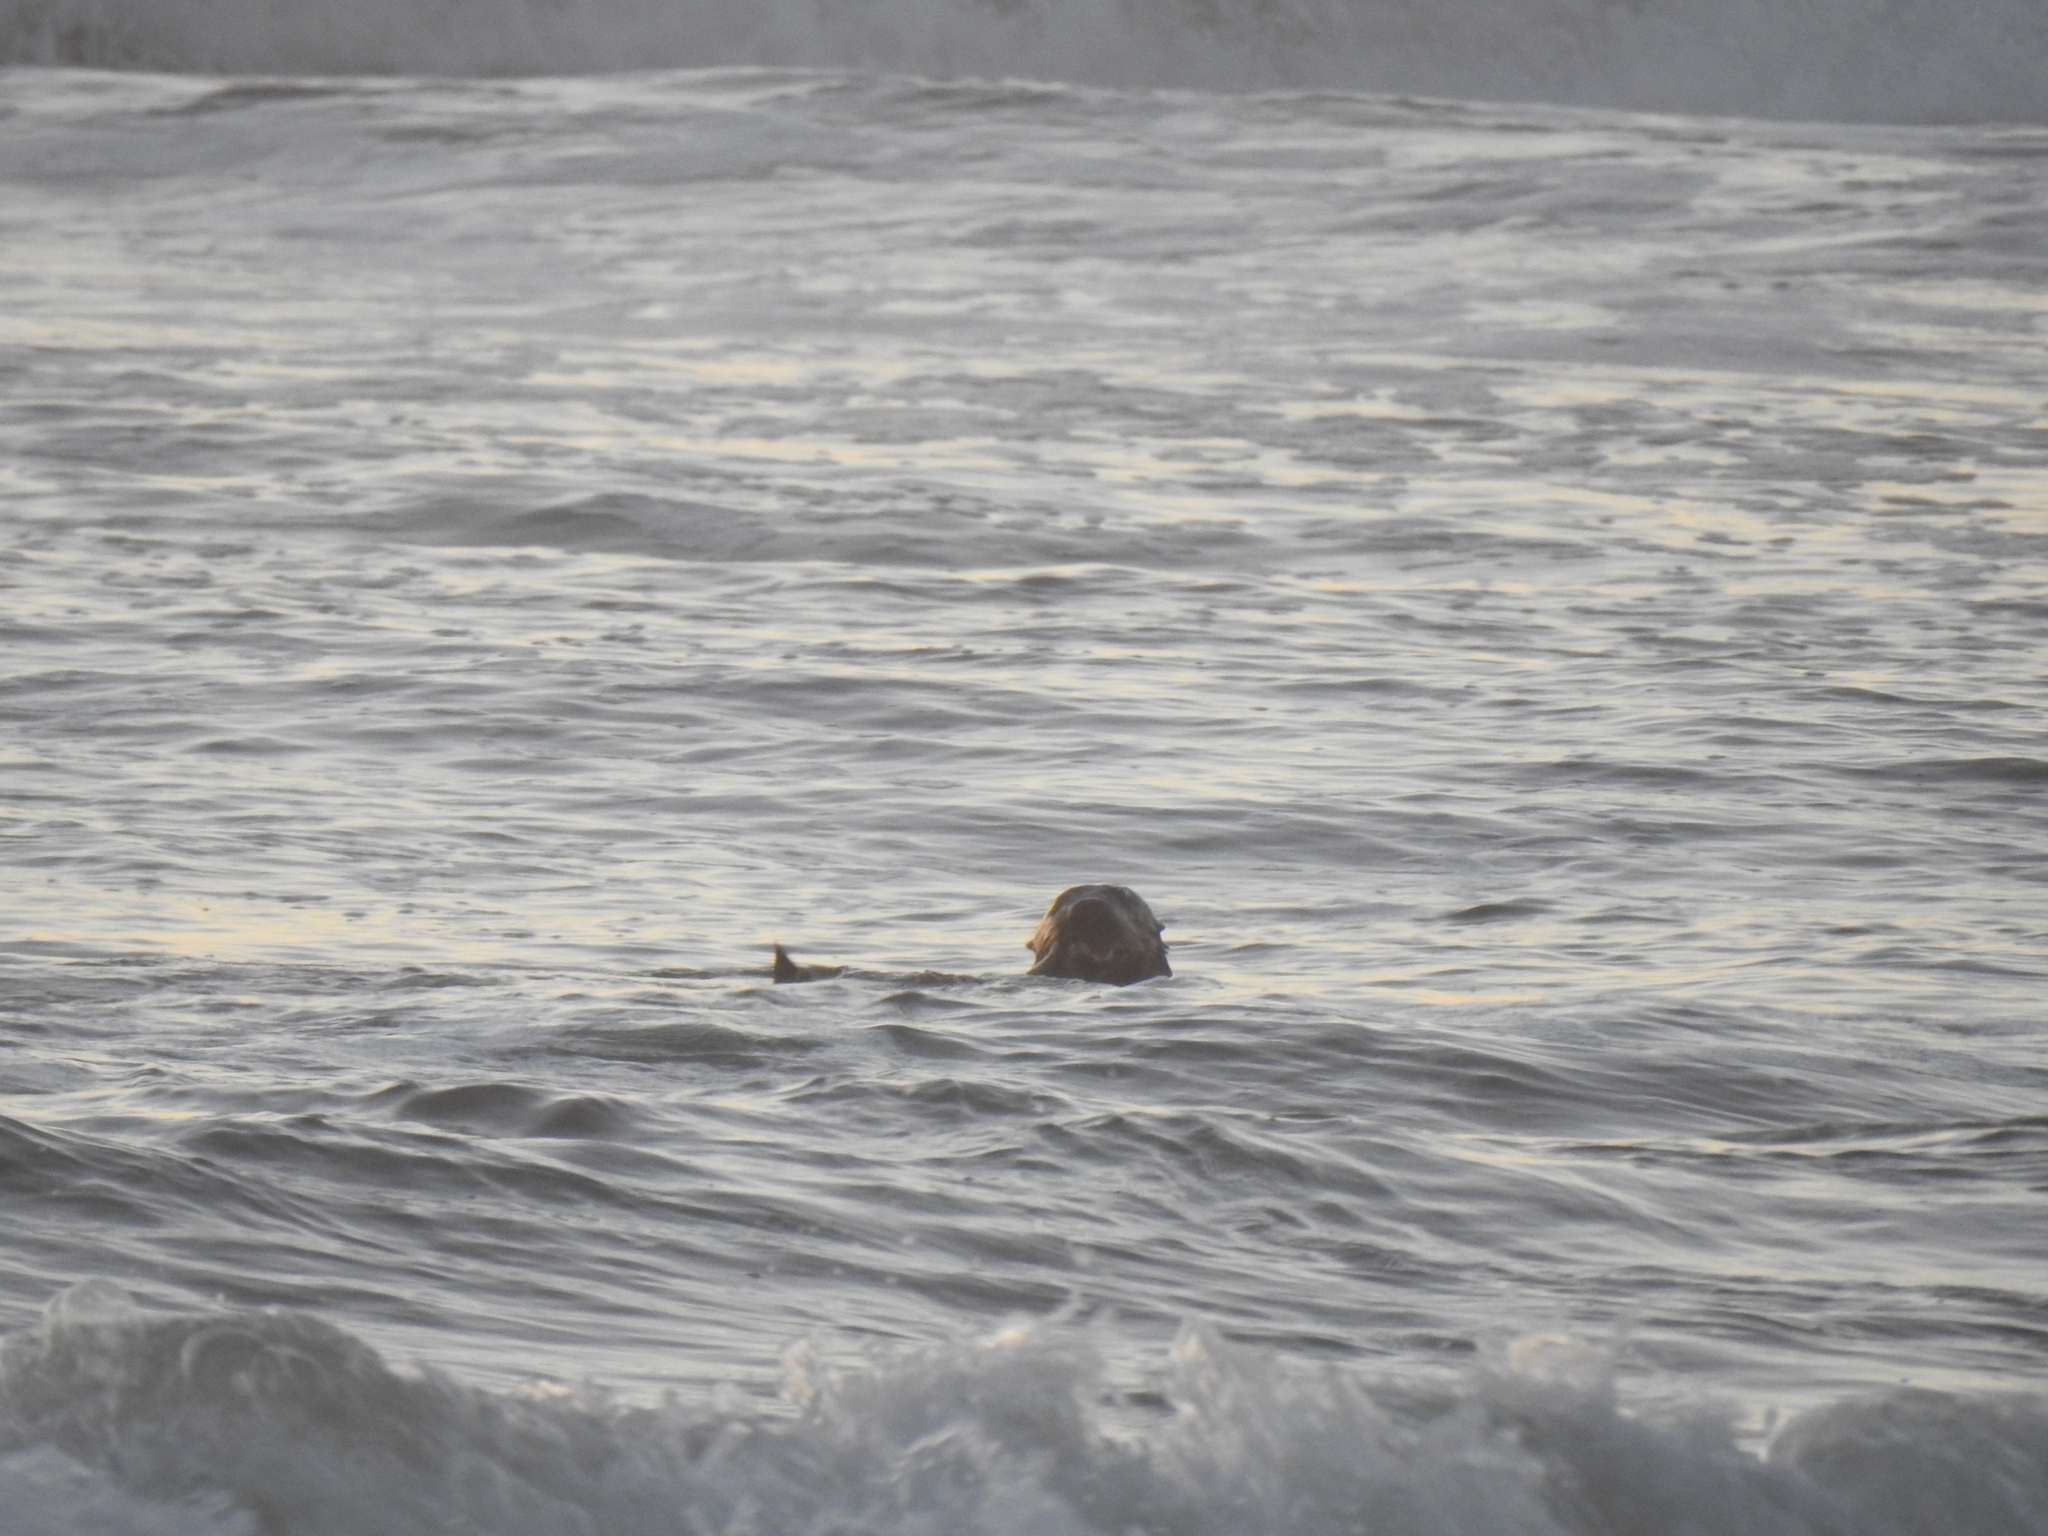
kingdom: Animalia
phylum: Chordata
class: Mammalia
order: Carnivora
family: Mustelidae
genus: Enhydra
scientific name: Enhydra lutris
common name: Sea otter
